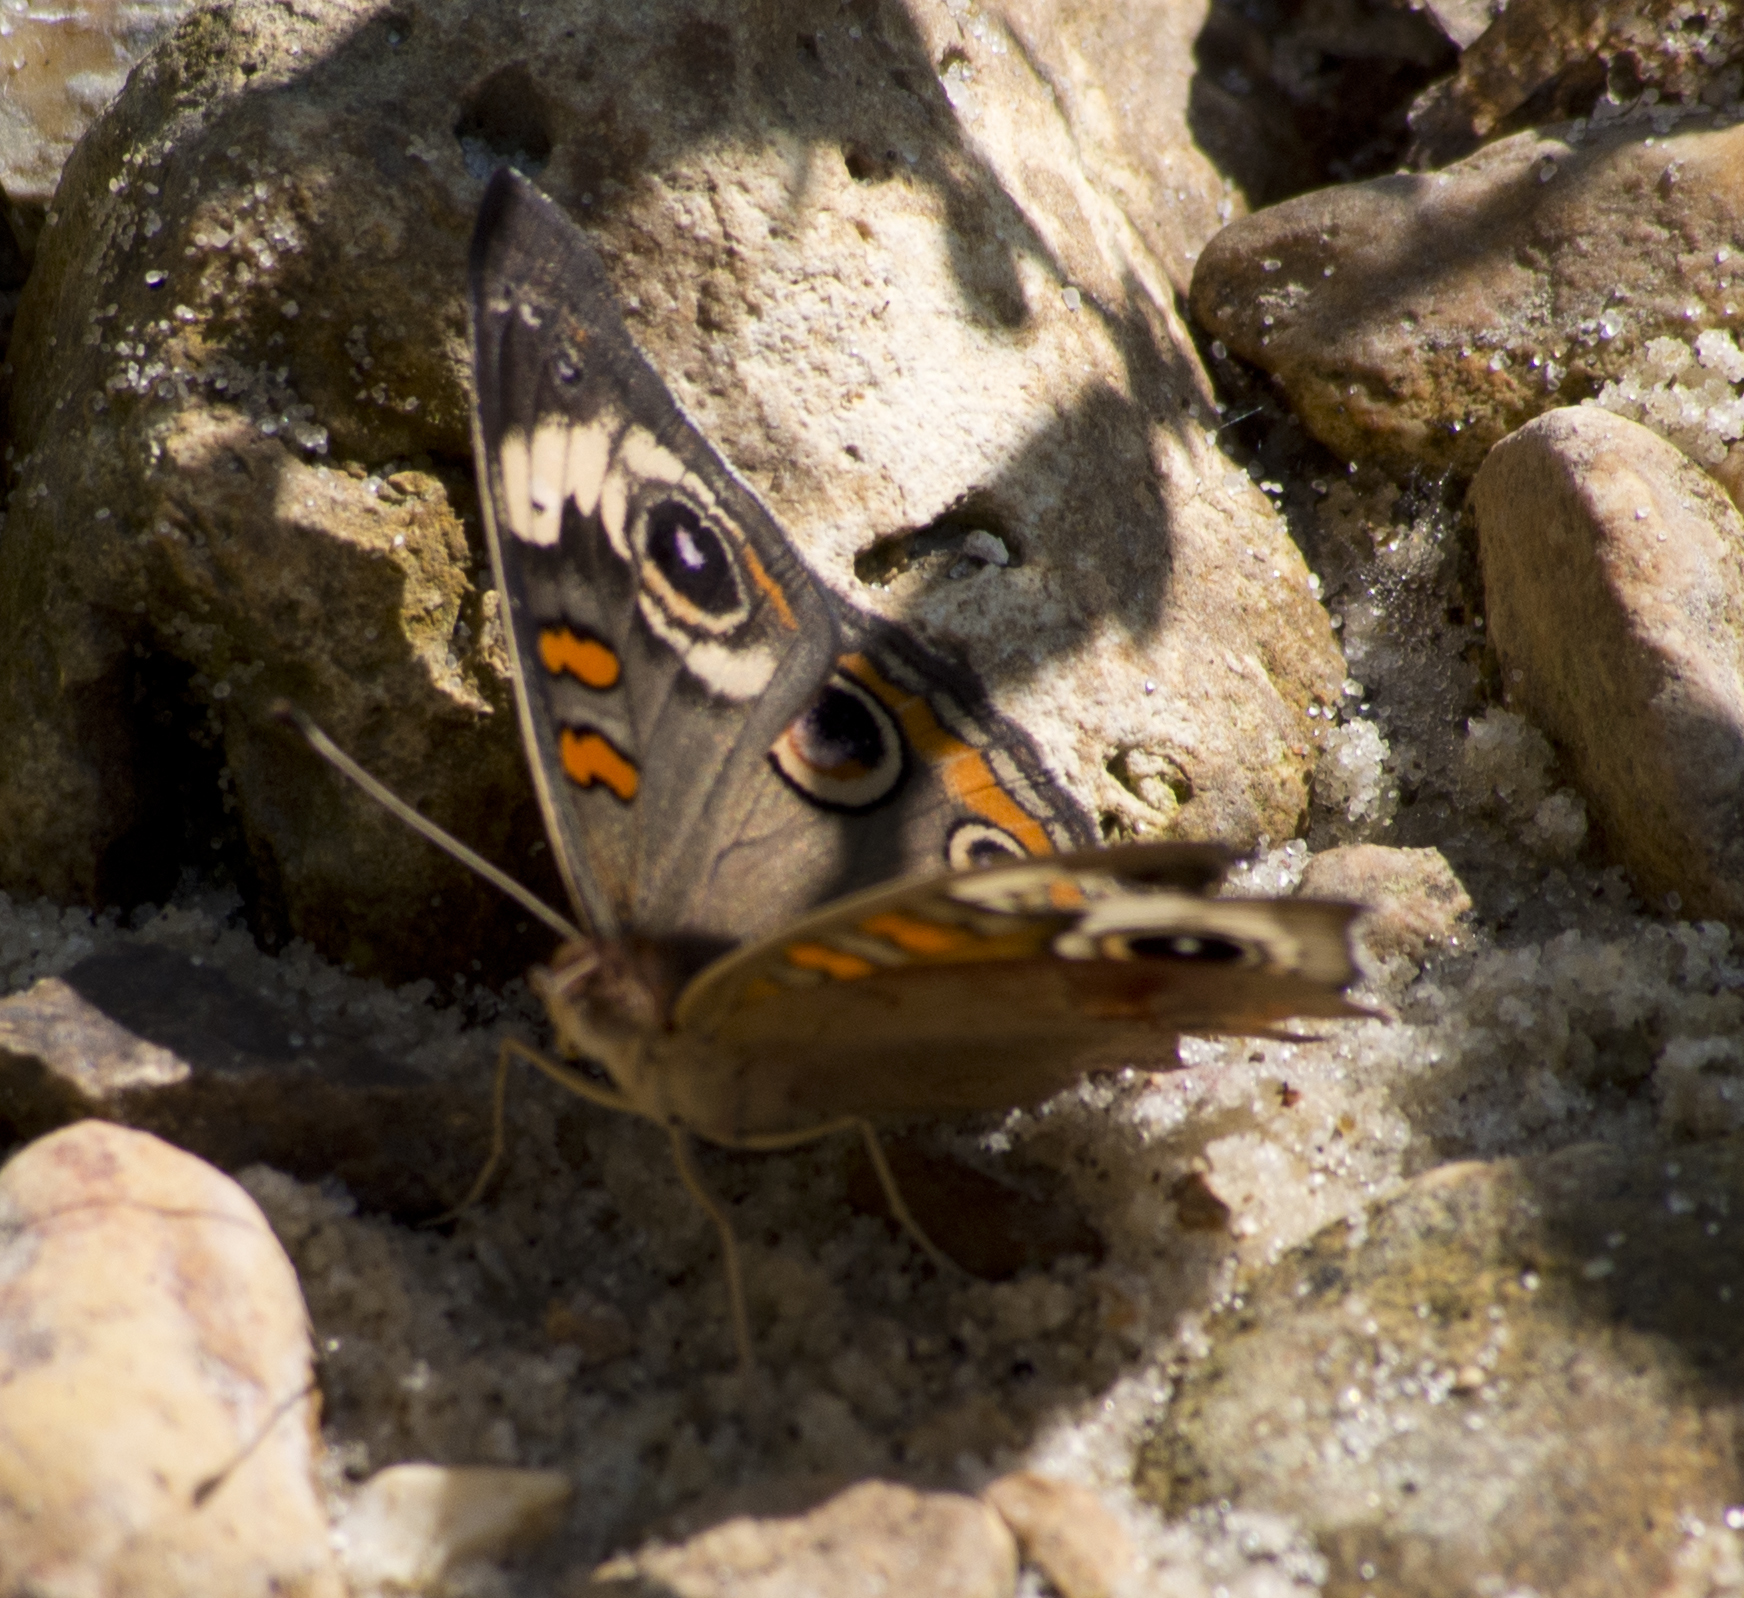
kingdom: Animalia
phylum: Arthropoda
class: Insecta
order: Lepidoptera
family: Nymphalidae
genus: Junonia
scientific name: Junonia coenia
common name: Common buckeye
